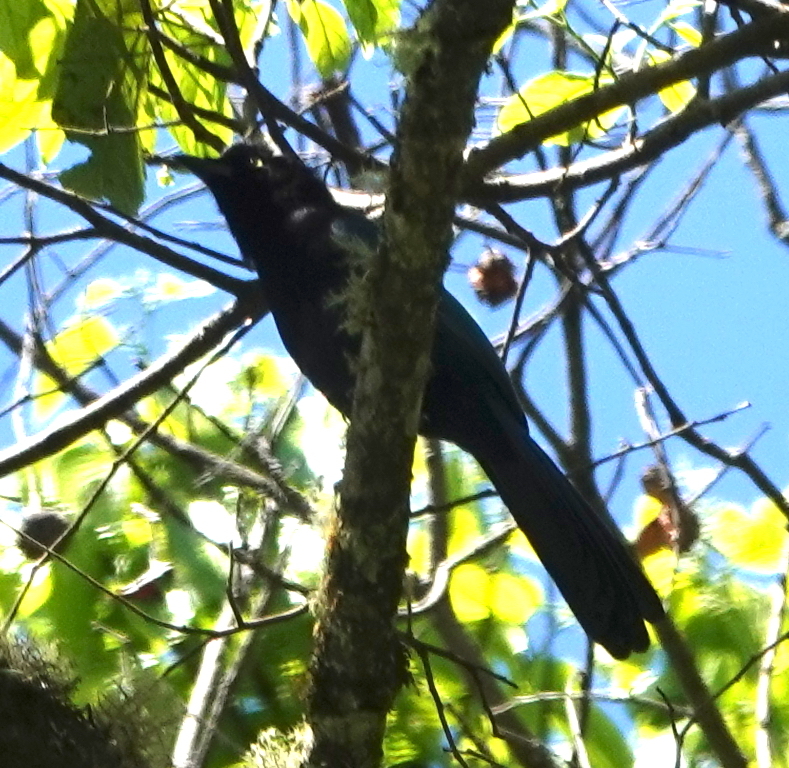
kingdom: Animalia
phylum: Chordata
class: Aves
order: Passeriformes
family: Corvidae
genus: Cyanocorax
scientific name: Cyanocorax melanocyaneus
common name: Bushy-crested jay
